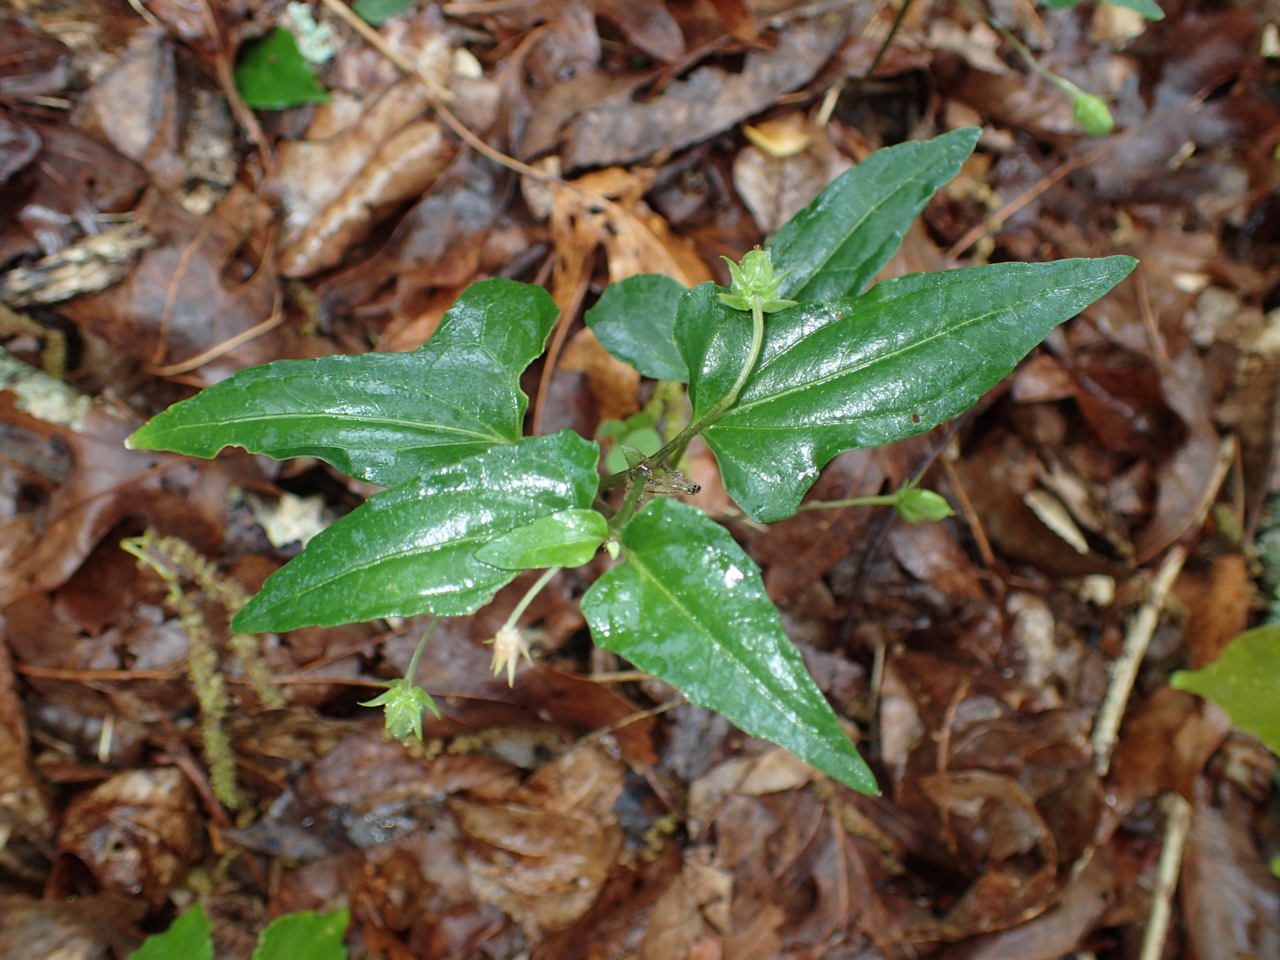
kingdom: Plantae
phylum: Tracheophyta
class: Magnoliopsida
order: Malpighiales
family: Violaceae
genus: Viola
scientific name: Viola hastata
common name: Spear-leaf violet
